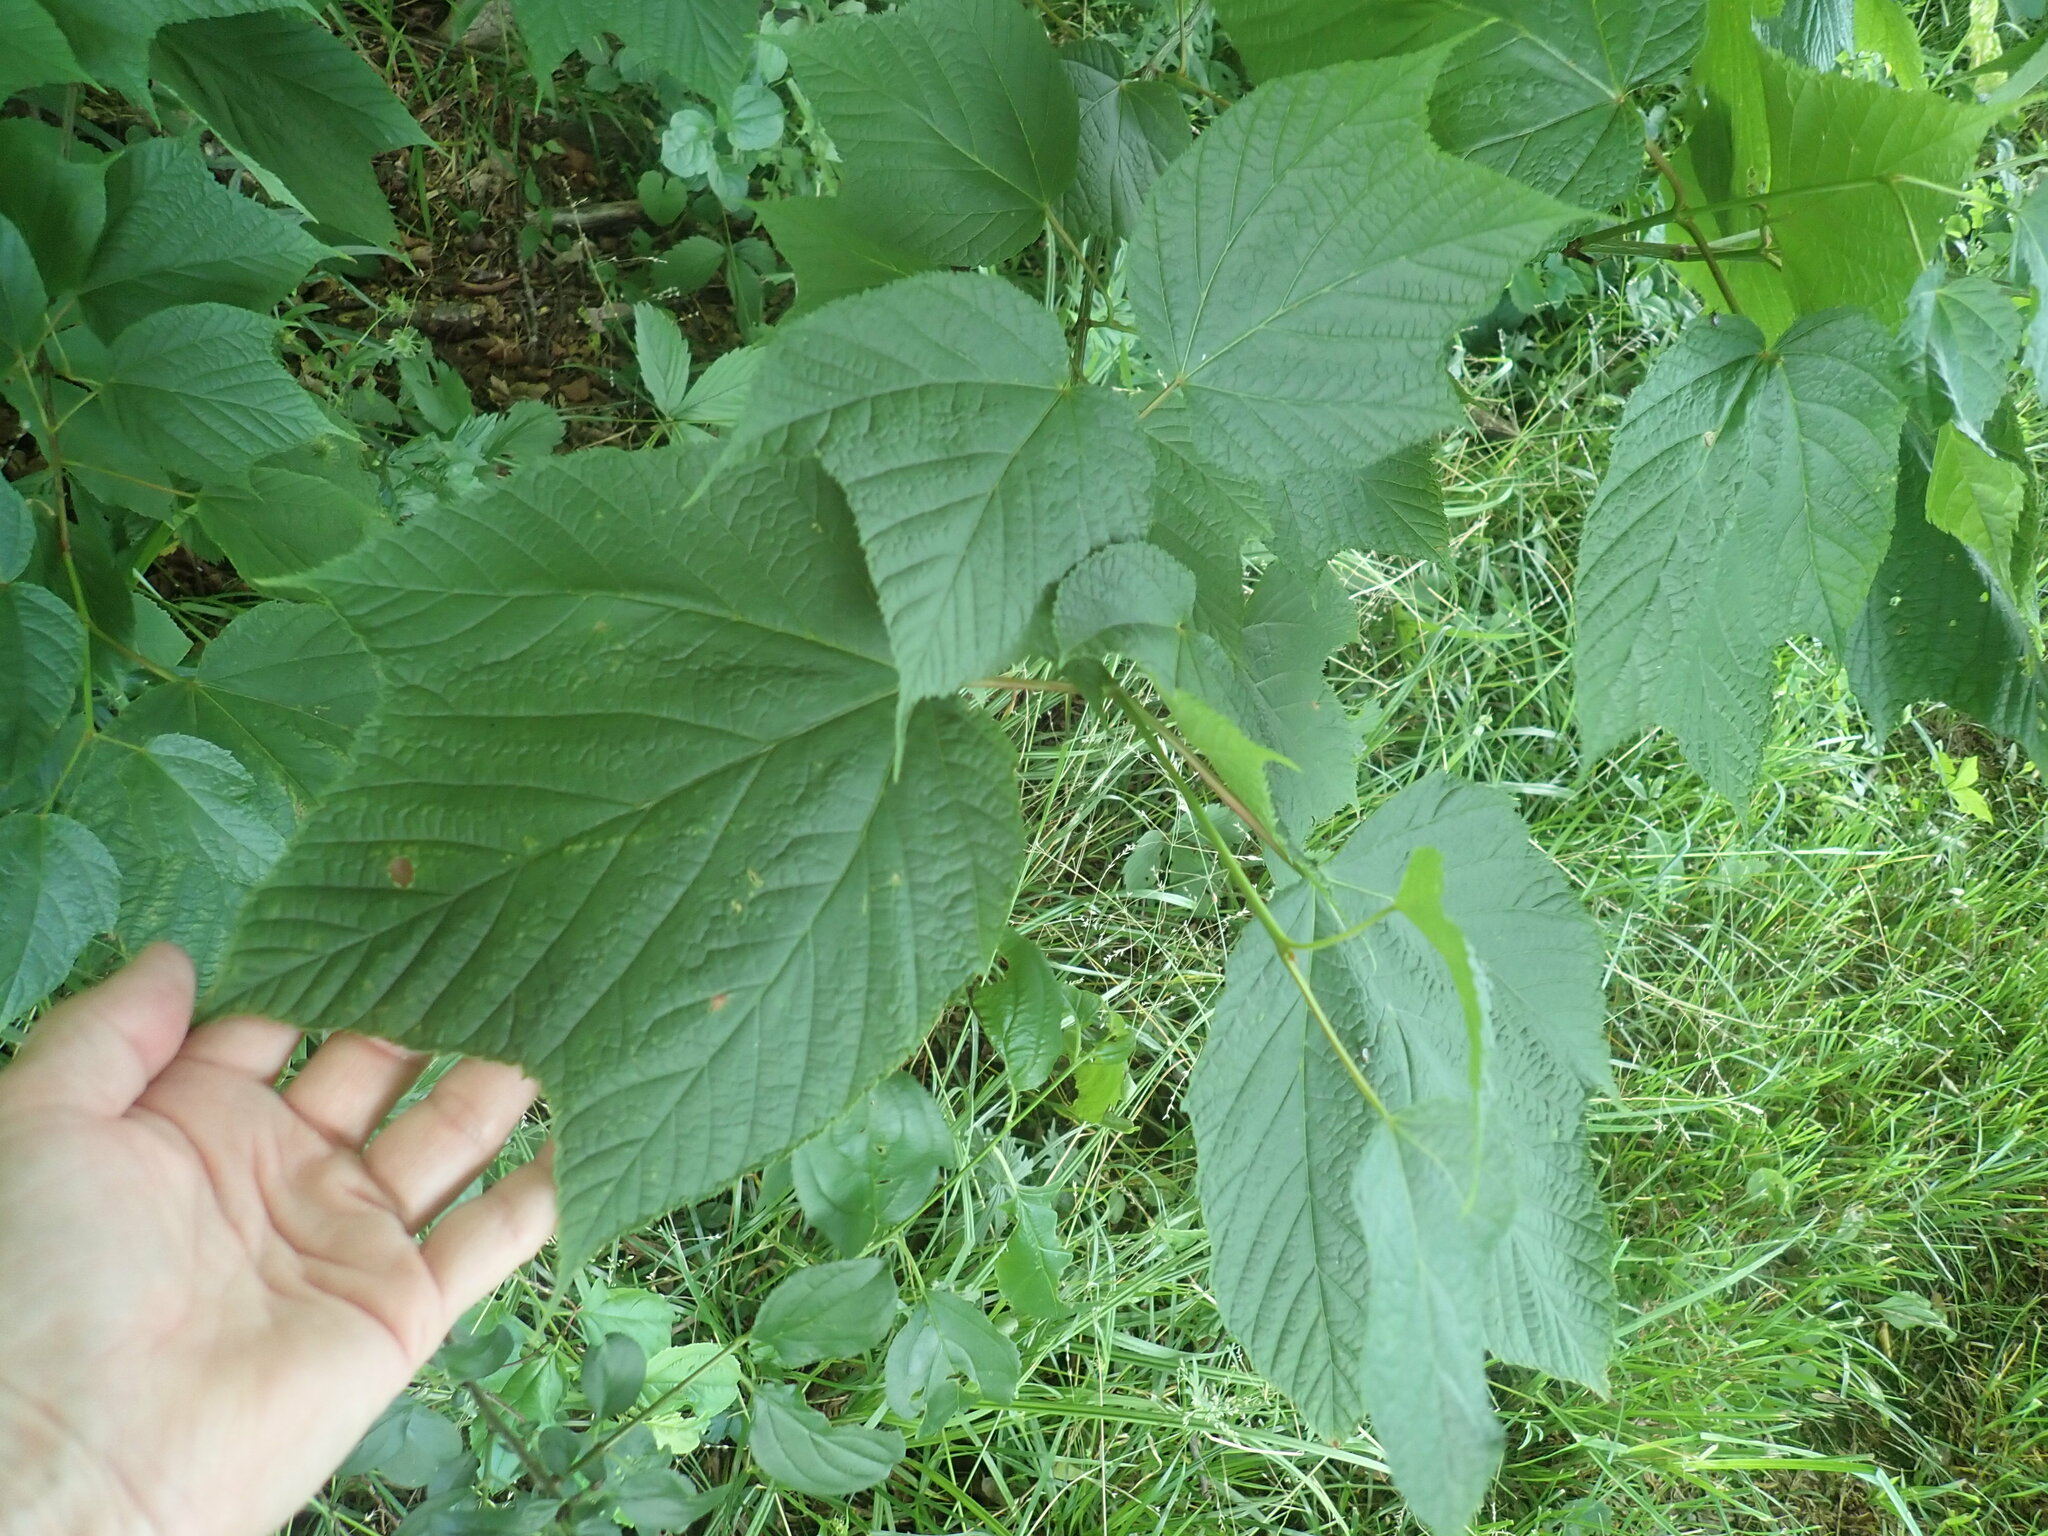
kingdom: Plantae
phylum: Tracheophyta
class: Magnoliopsida
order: Sapindales
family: Sapindaceae
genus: Acer
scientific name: Acer pensylvanicum
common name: Moosewood
